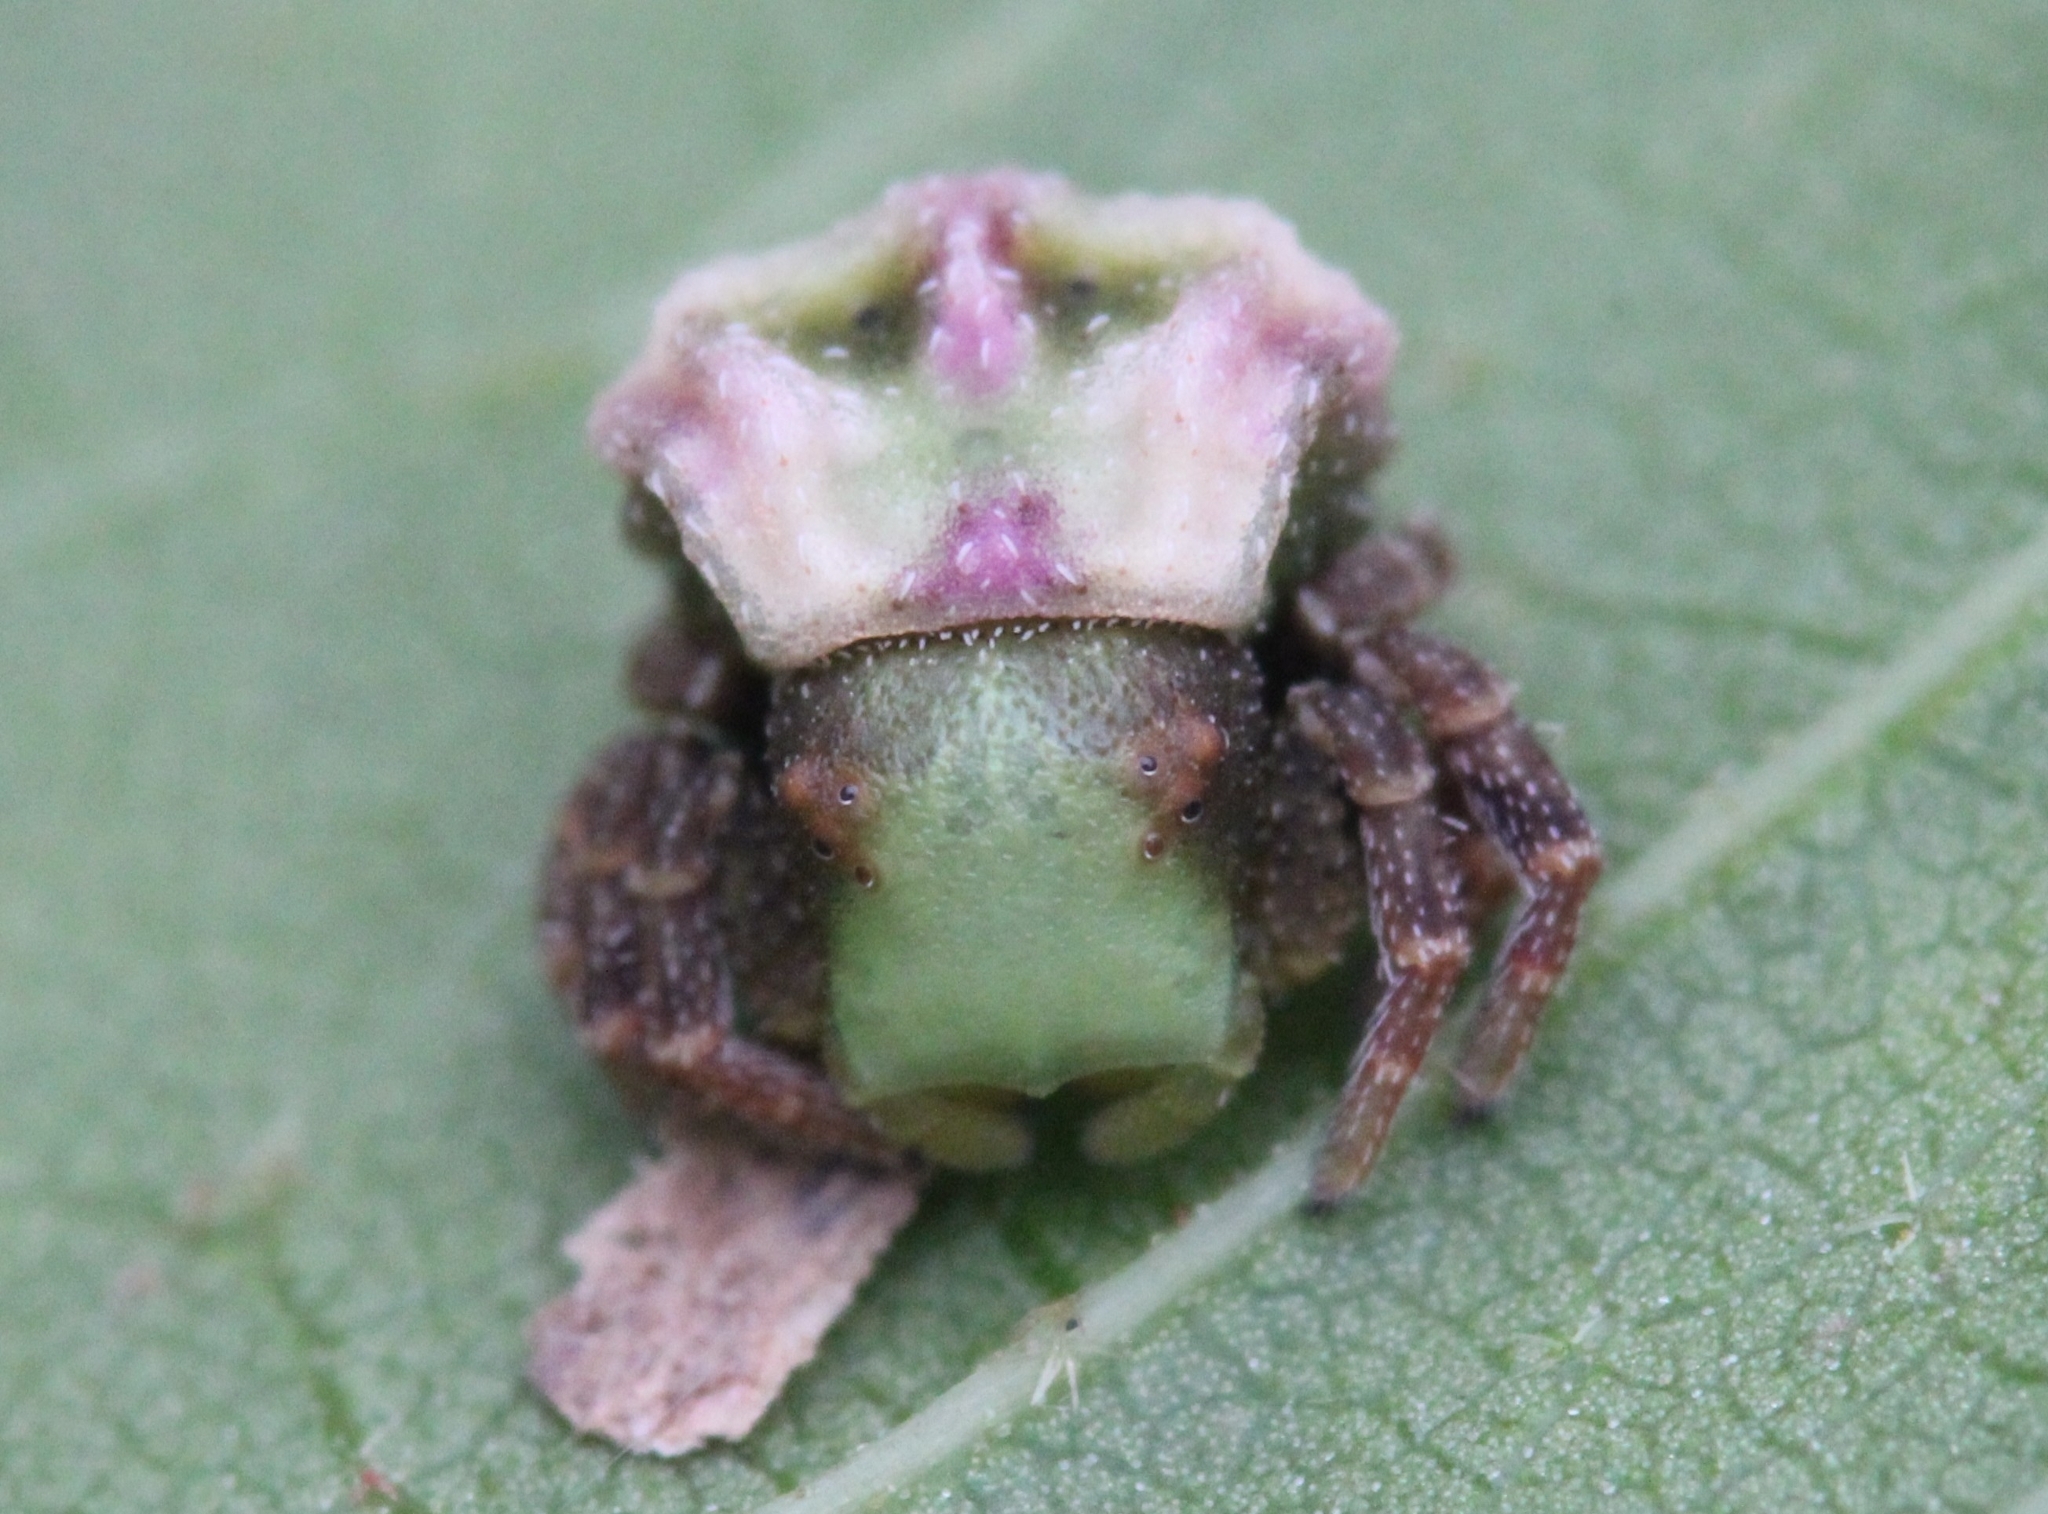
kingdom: Animalia
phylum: Arthropoda
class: Arachnida
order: Araneae
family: Thomisidae
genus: Parabomis
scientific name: Parabomis megae
